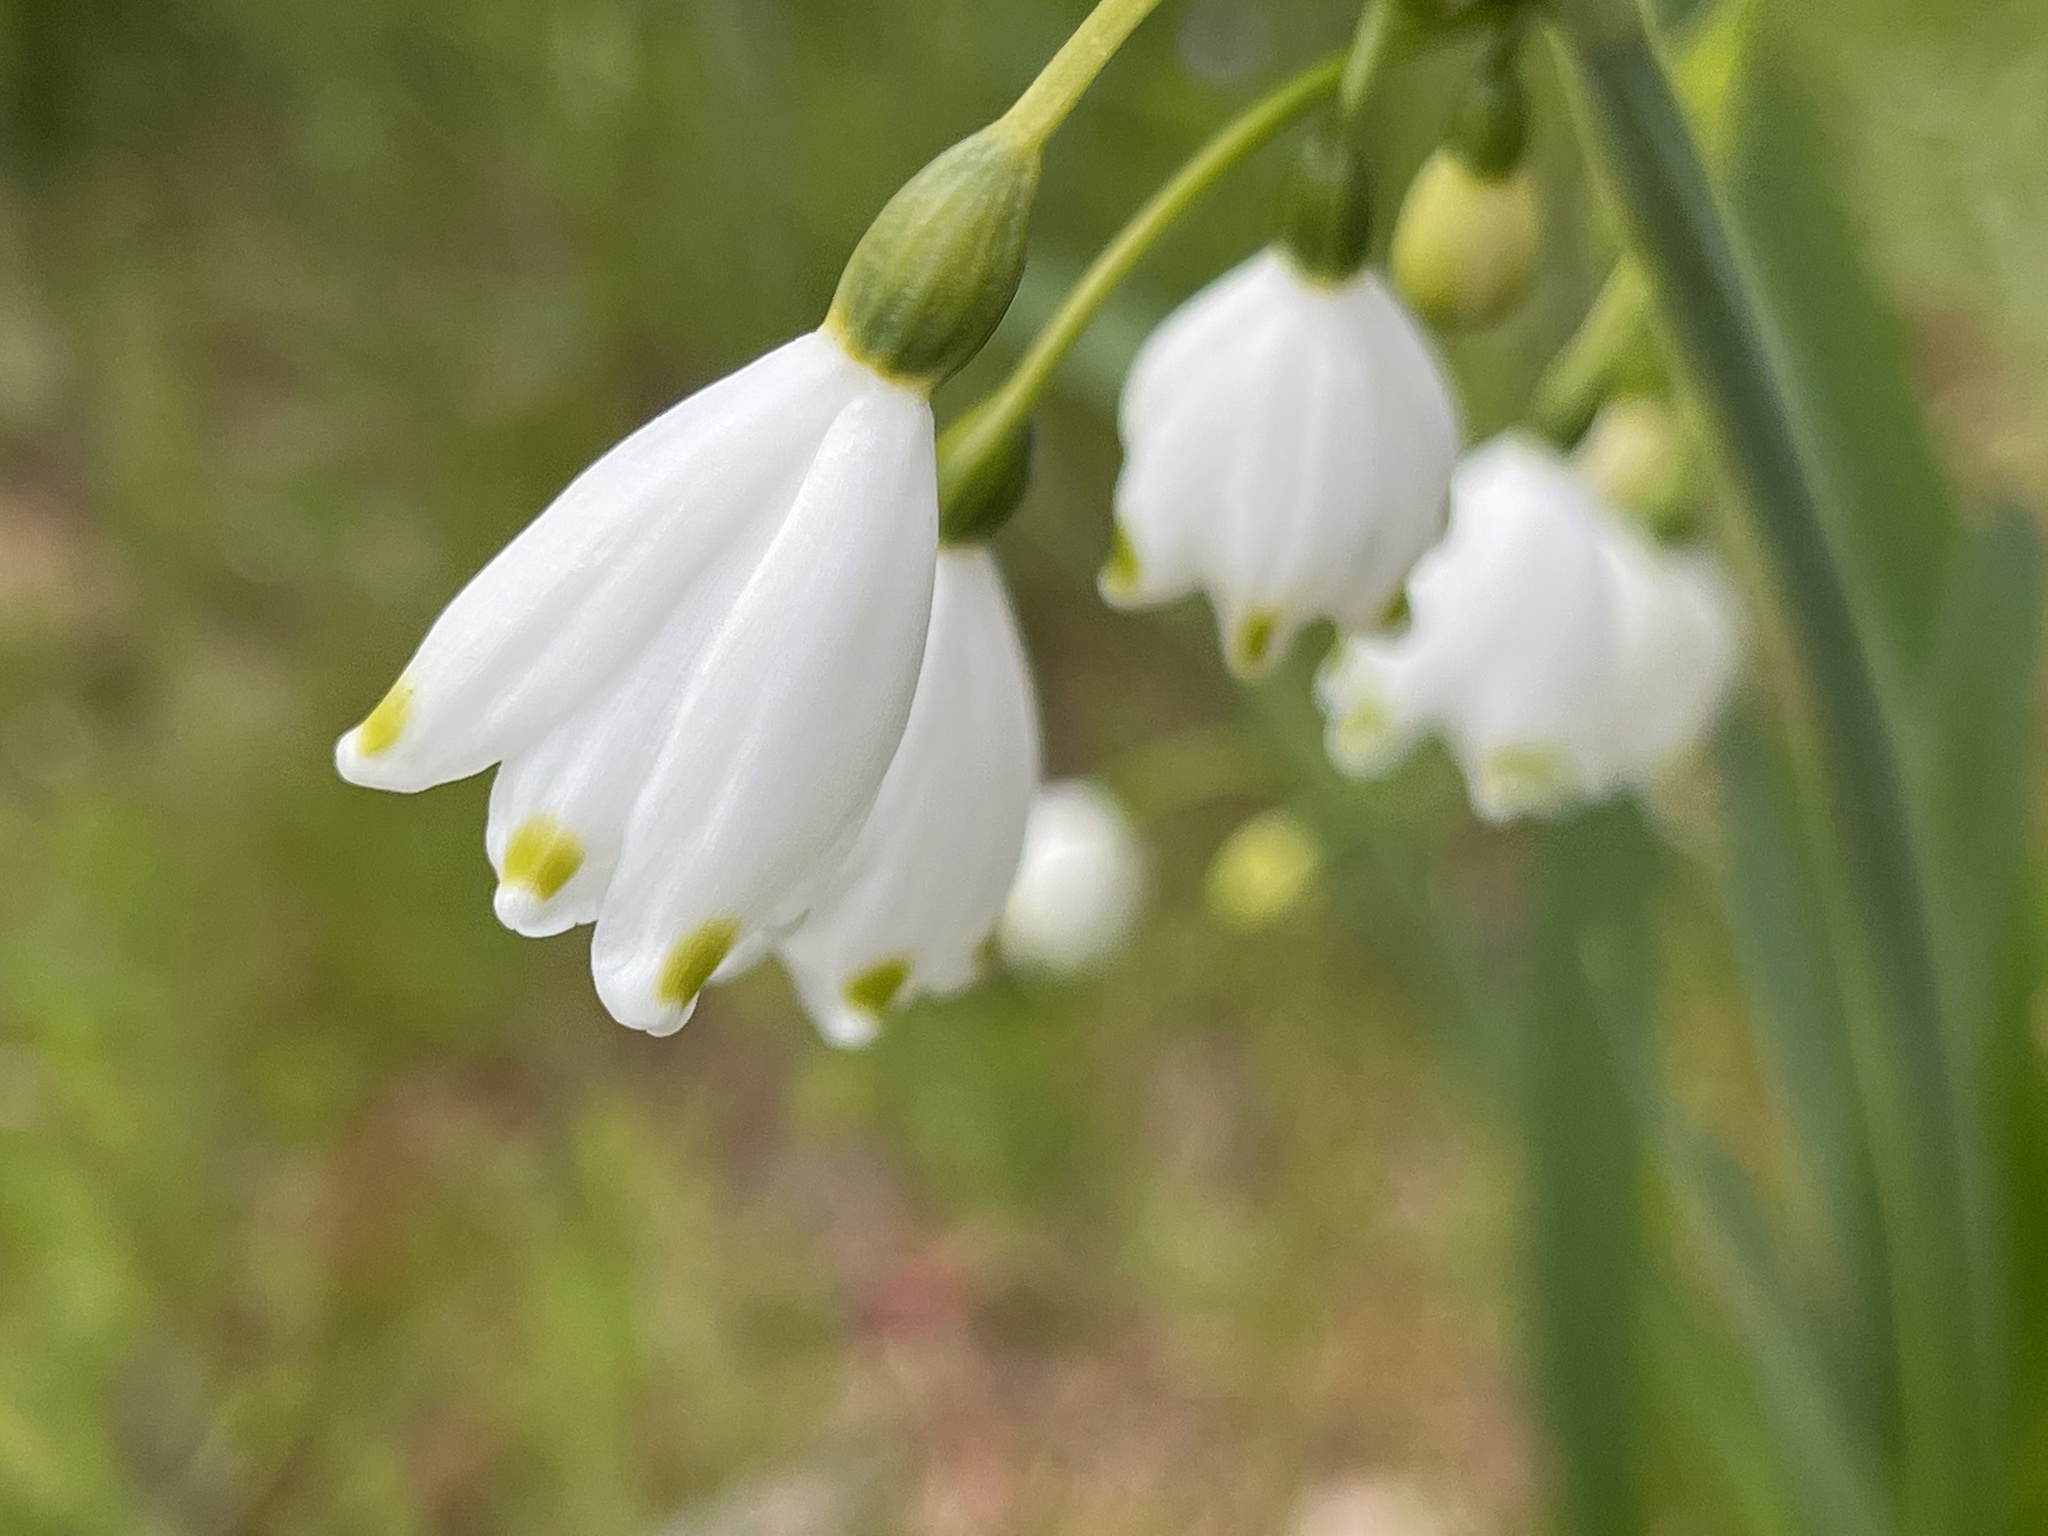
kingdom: Plantae
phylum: Tracheophyta
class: Liliopsida
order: Asparagales
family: Amaryllidaceae
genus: Leucojum
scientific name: Leucojum aestivum
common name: Summer snowflake
